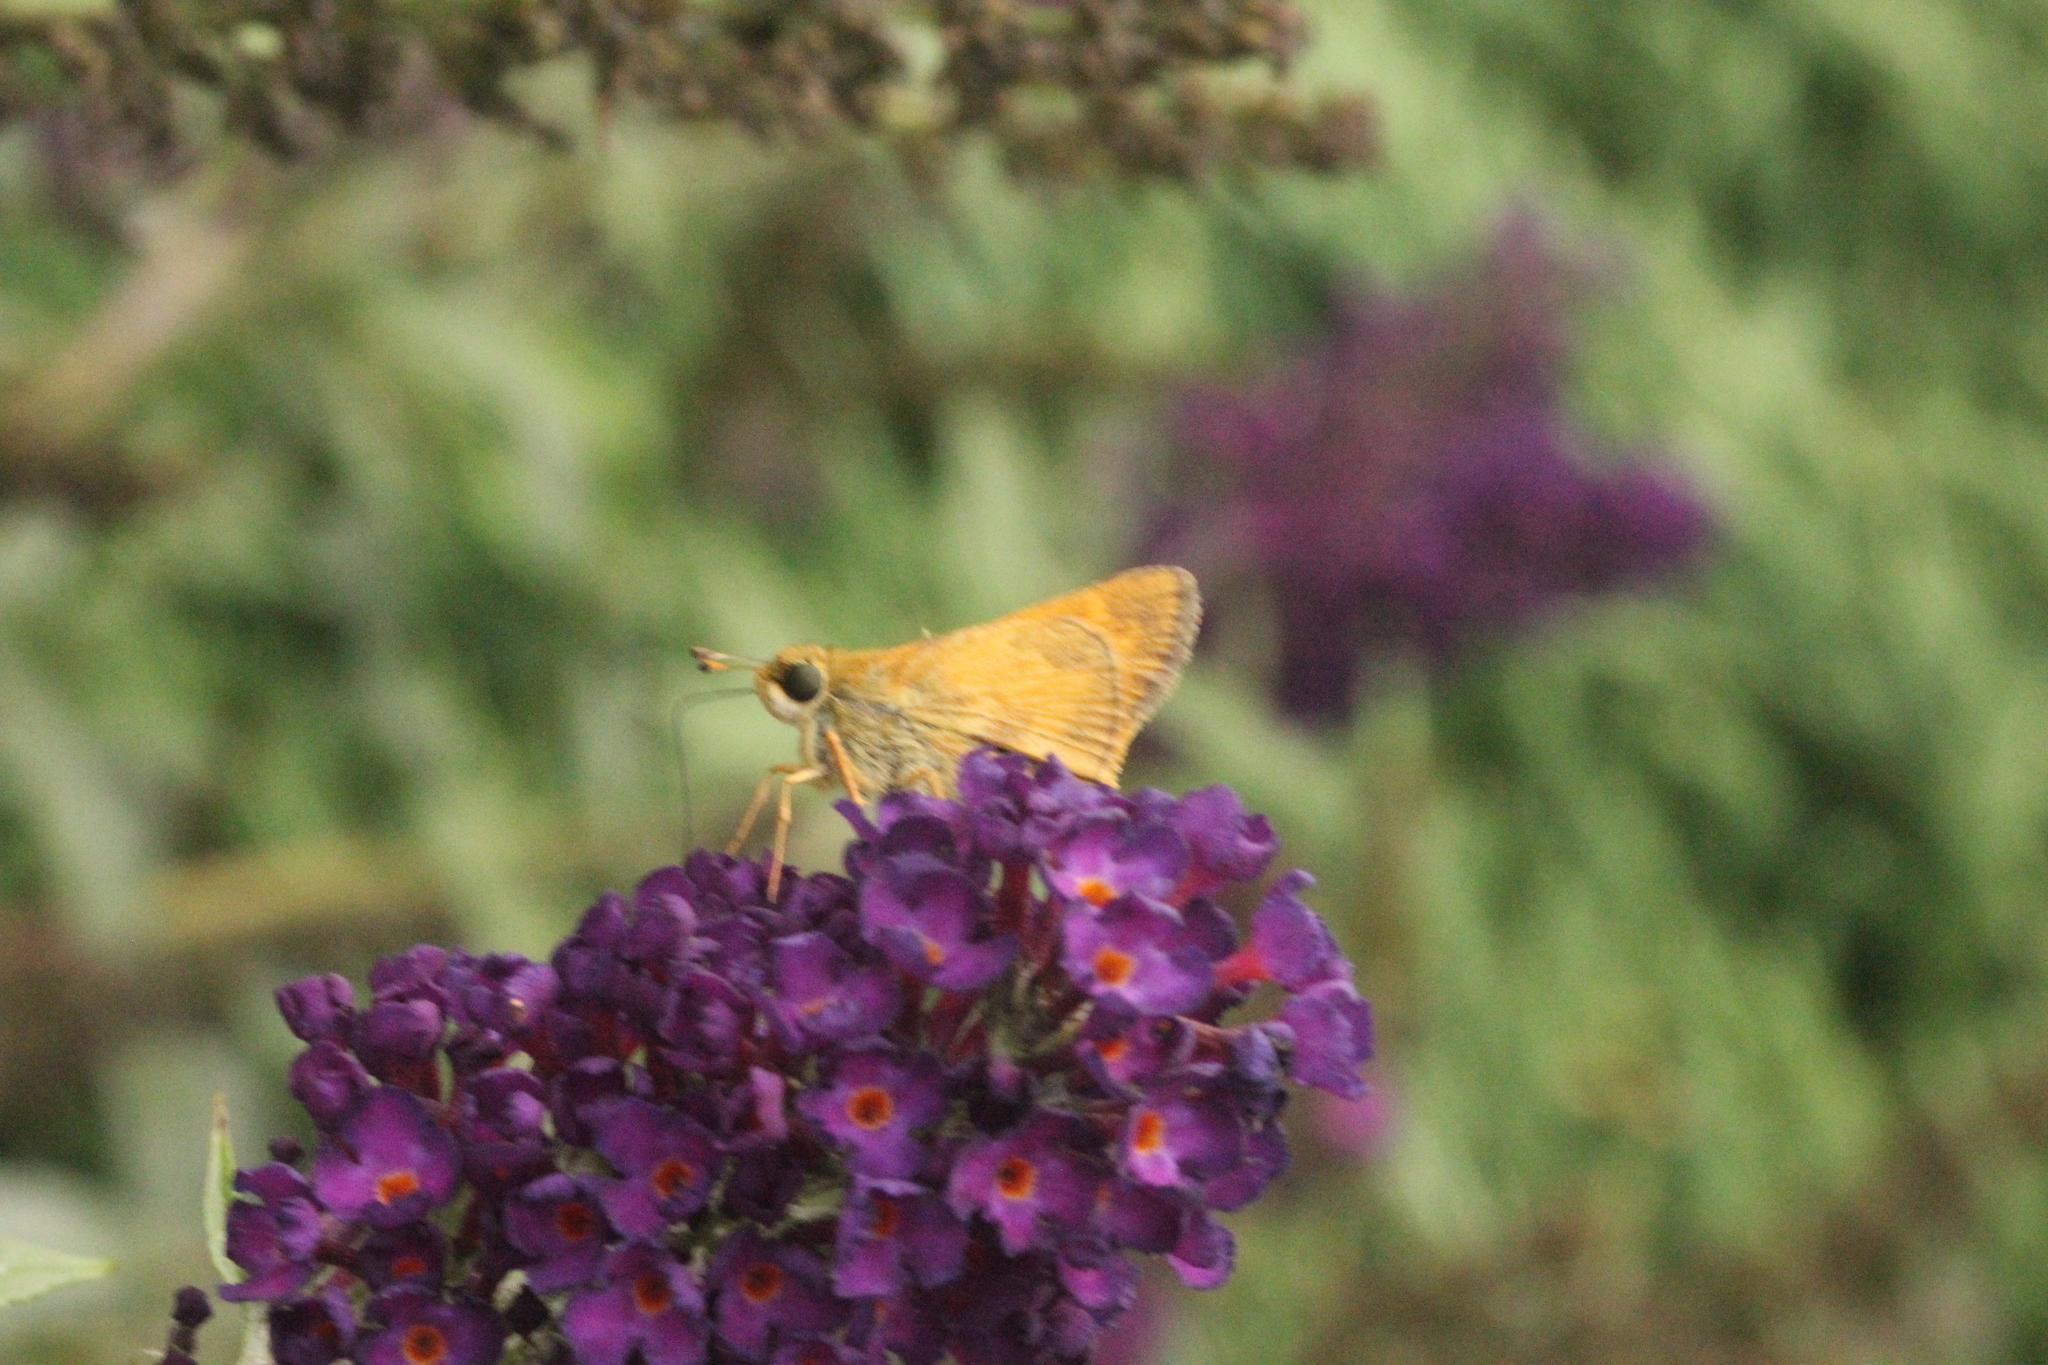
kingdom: Animalia
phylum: Arthropoda
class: Insecta
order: Lepidoptera
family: Hesperiidae
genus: Atalopedes
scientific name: Atalopedes
